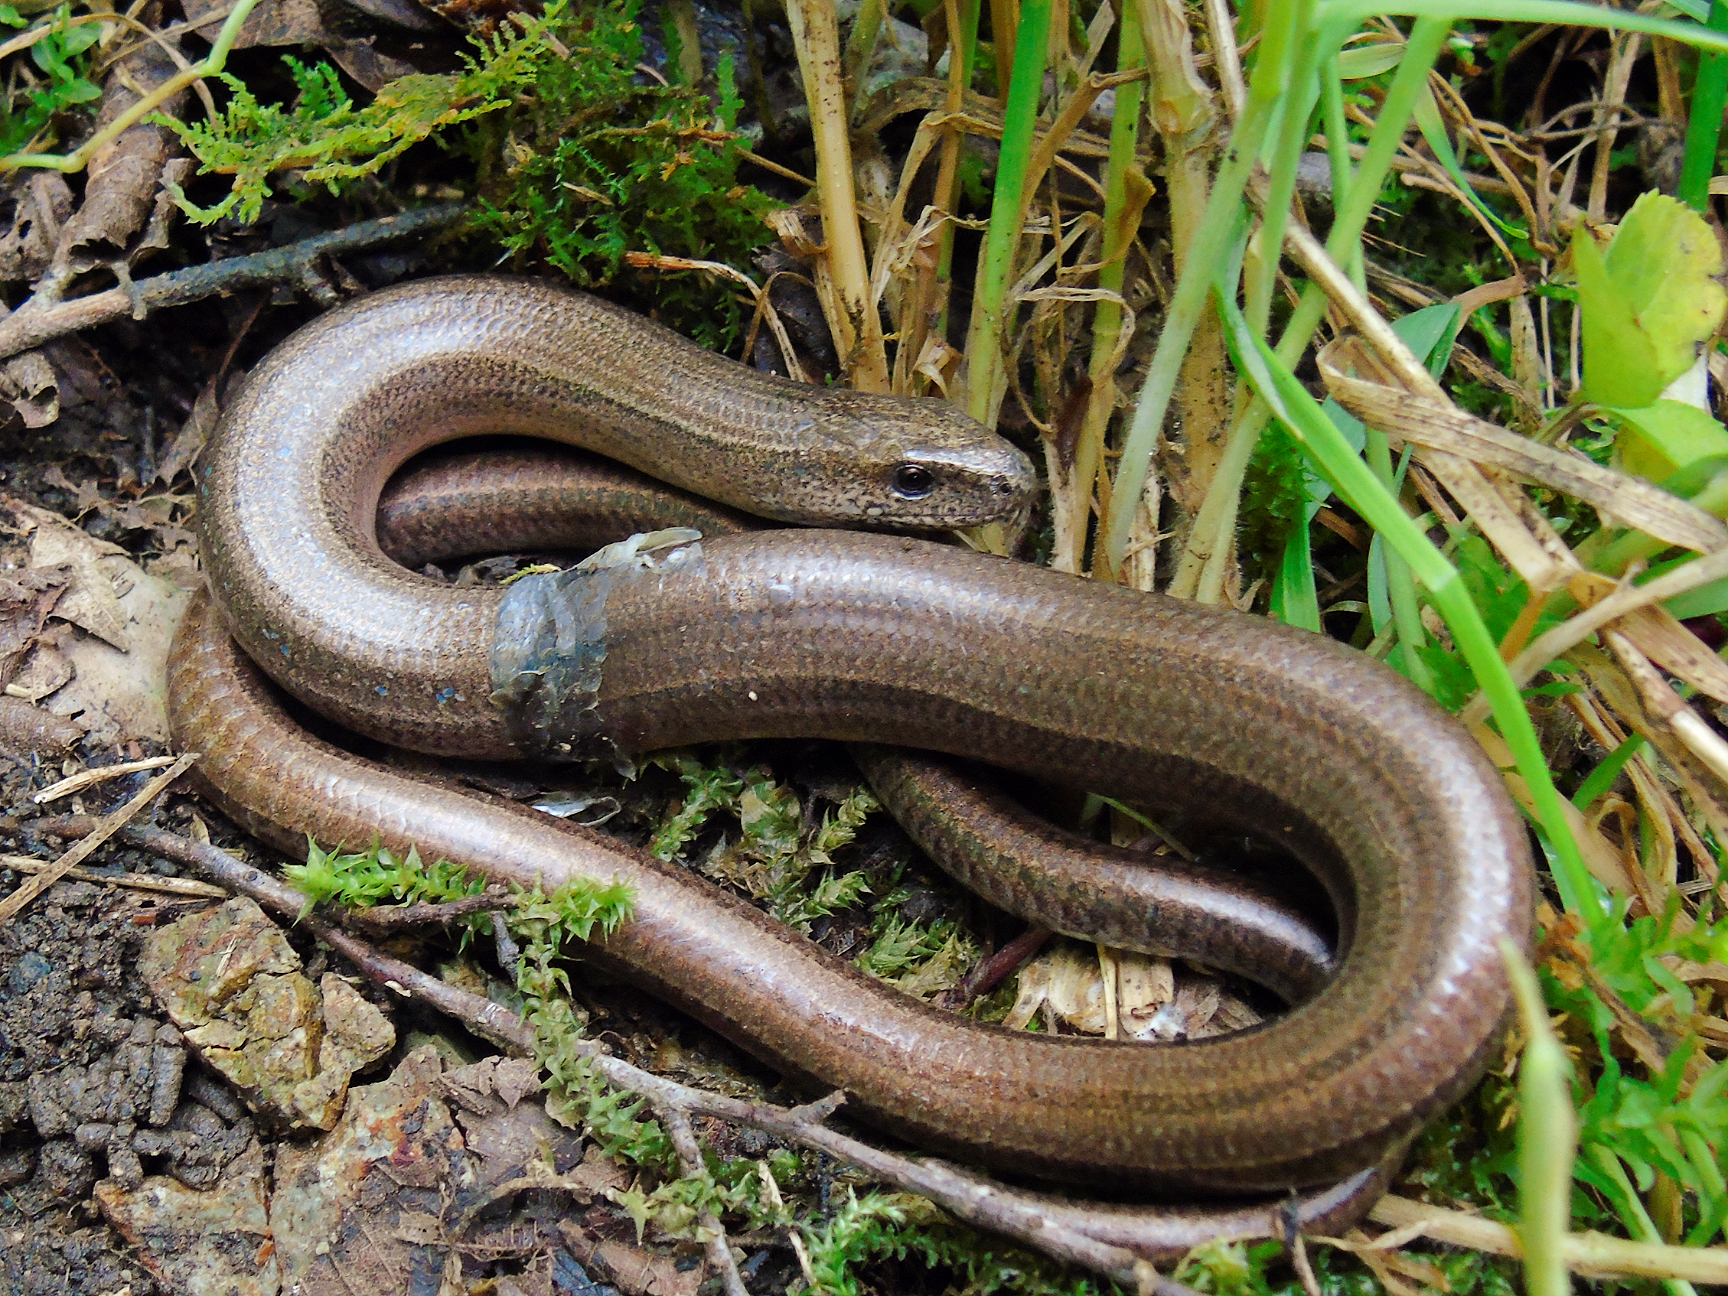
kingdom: Animalia
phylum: Chordata
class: Squamata
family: Anguidae
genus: Anguis
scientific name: Anguis colchica
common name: Slow worm
